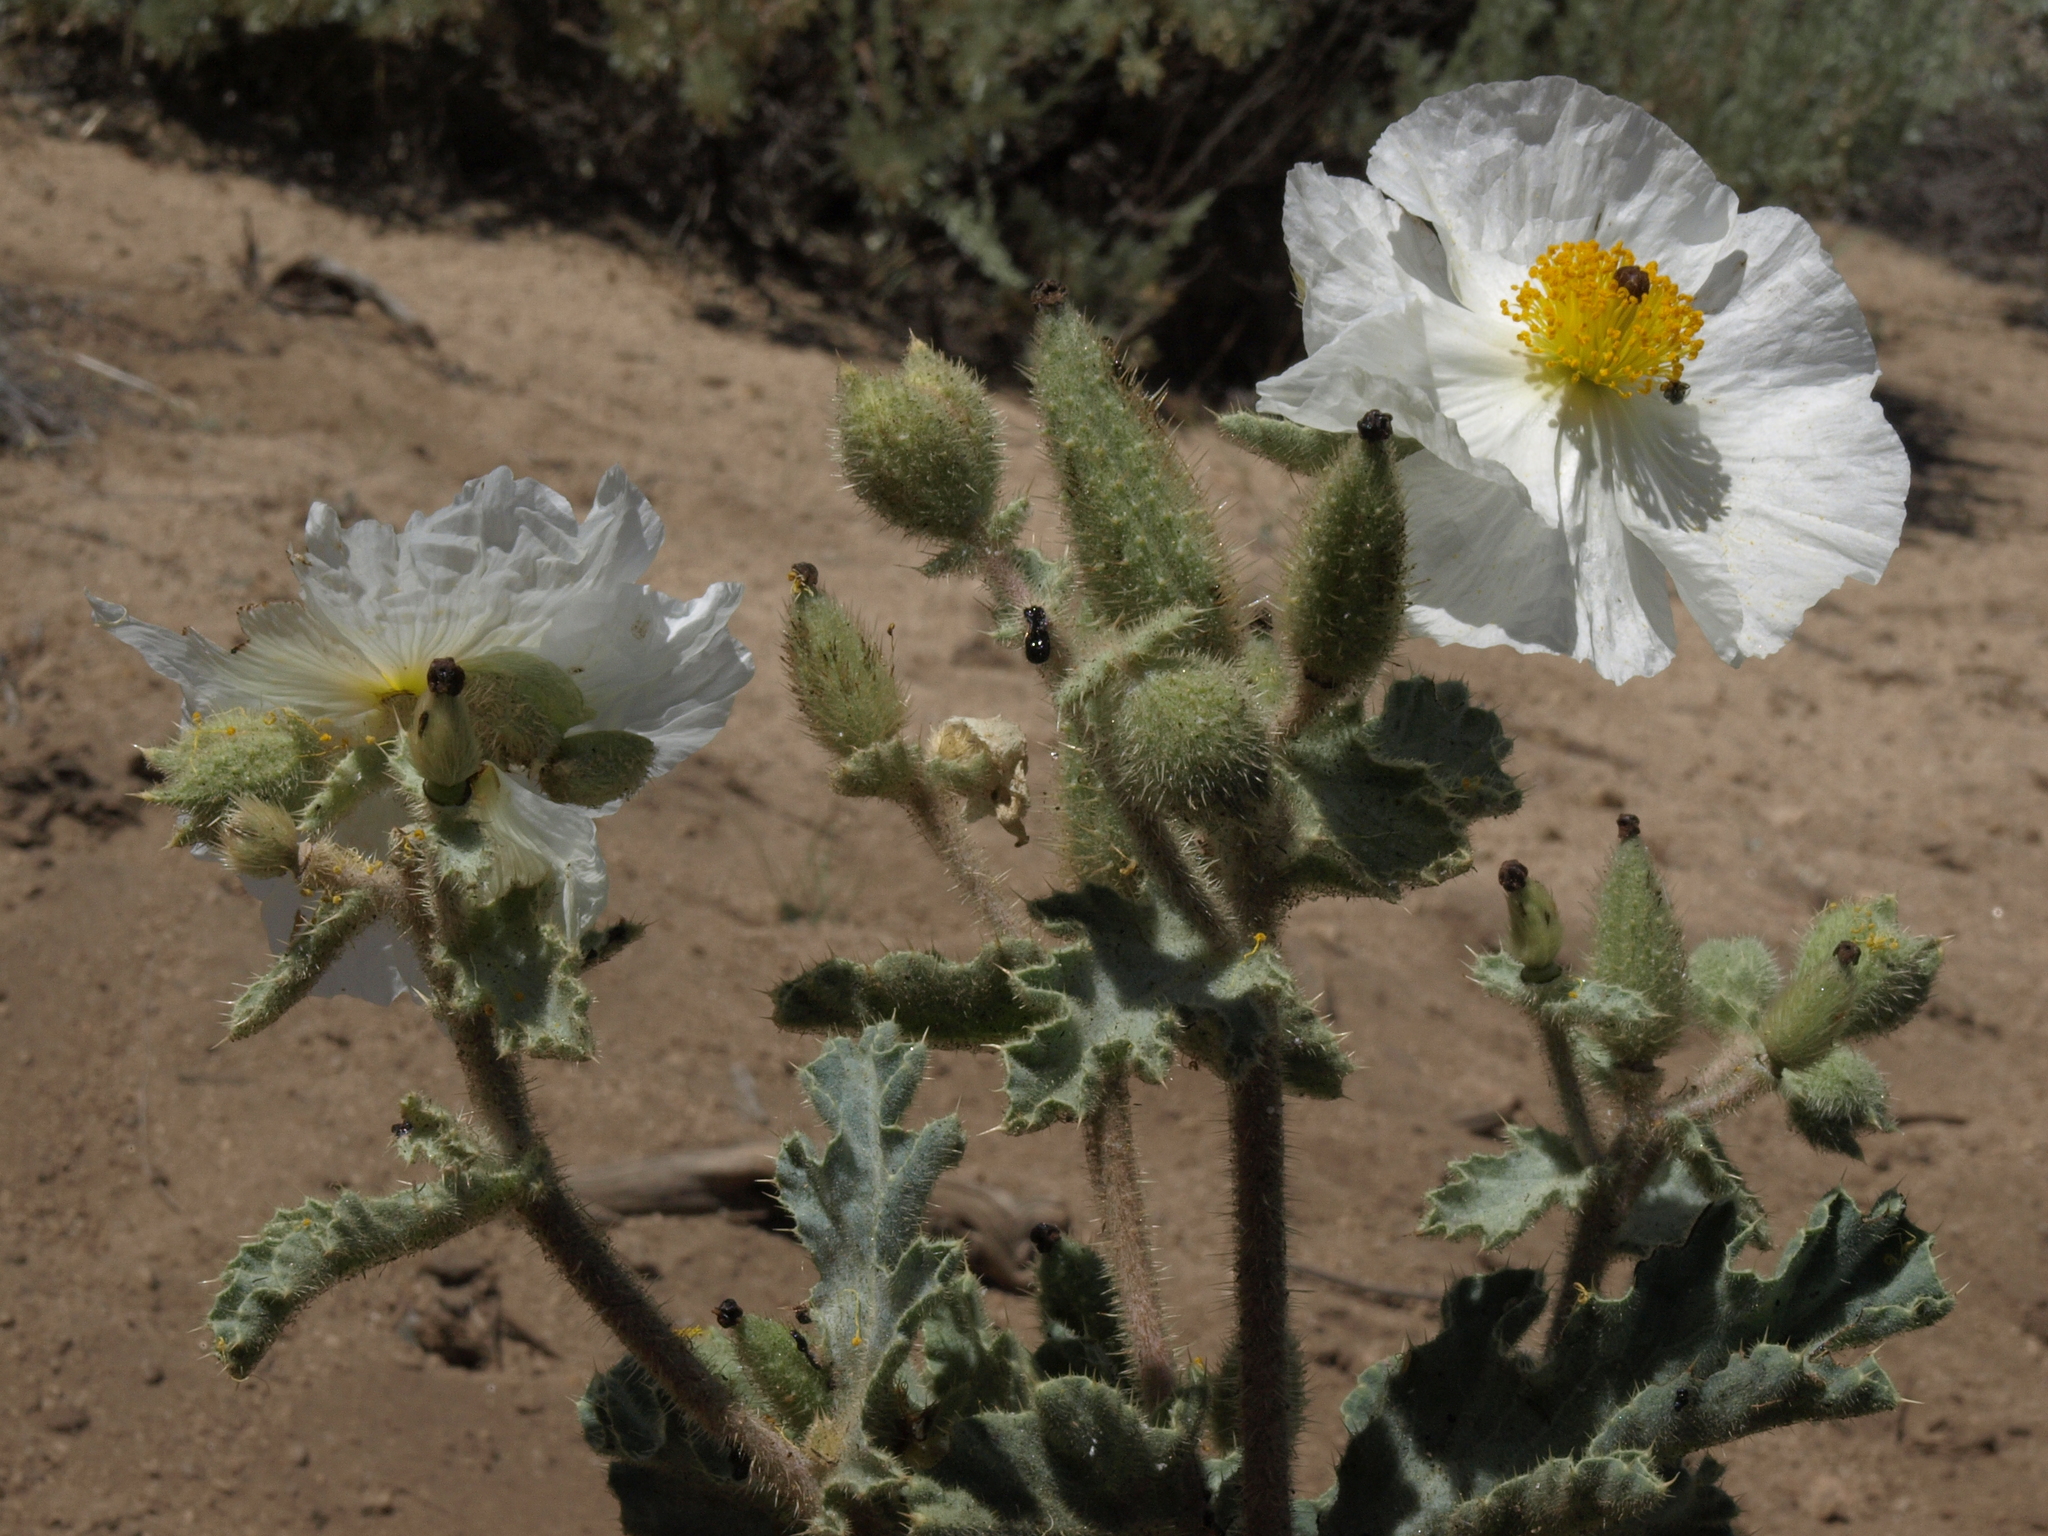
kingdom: Plantae
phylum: Tracheophyta
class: Magnoliopsida
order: Ranunculales
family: Papaveraceae
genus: Argemone
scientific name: Argemone munita
